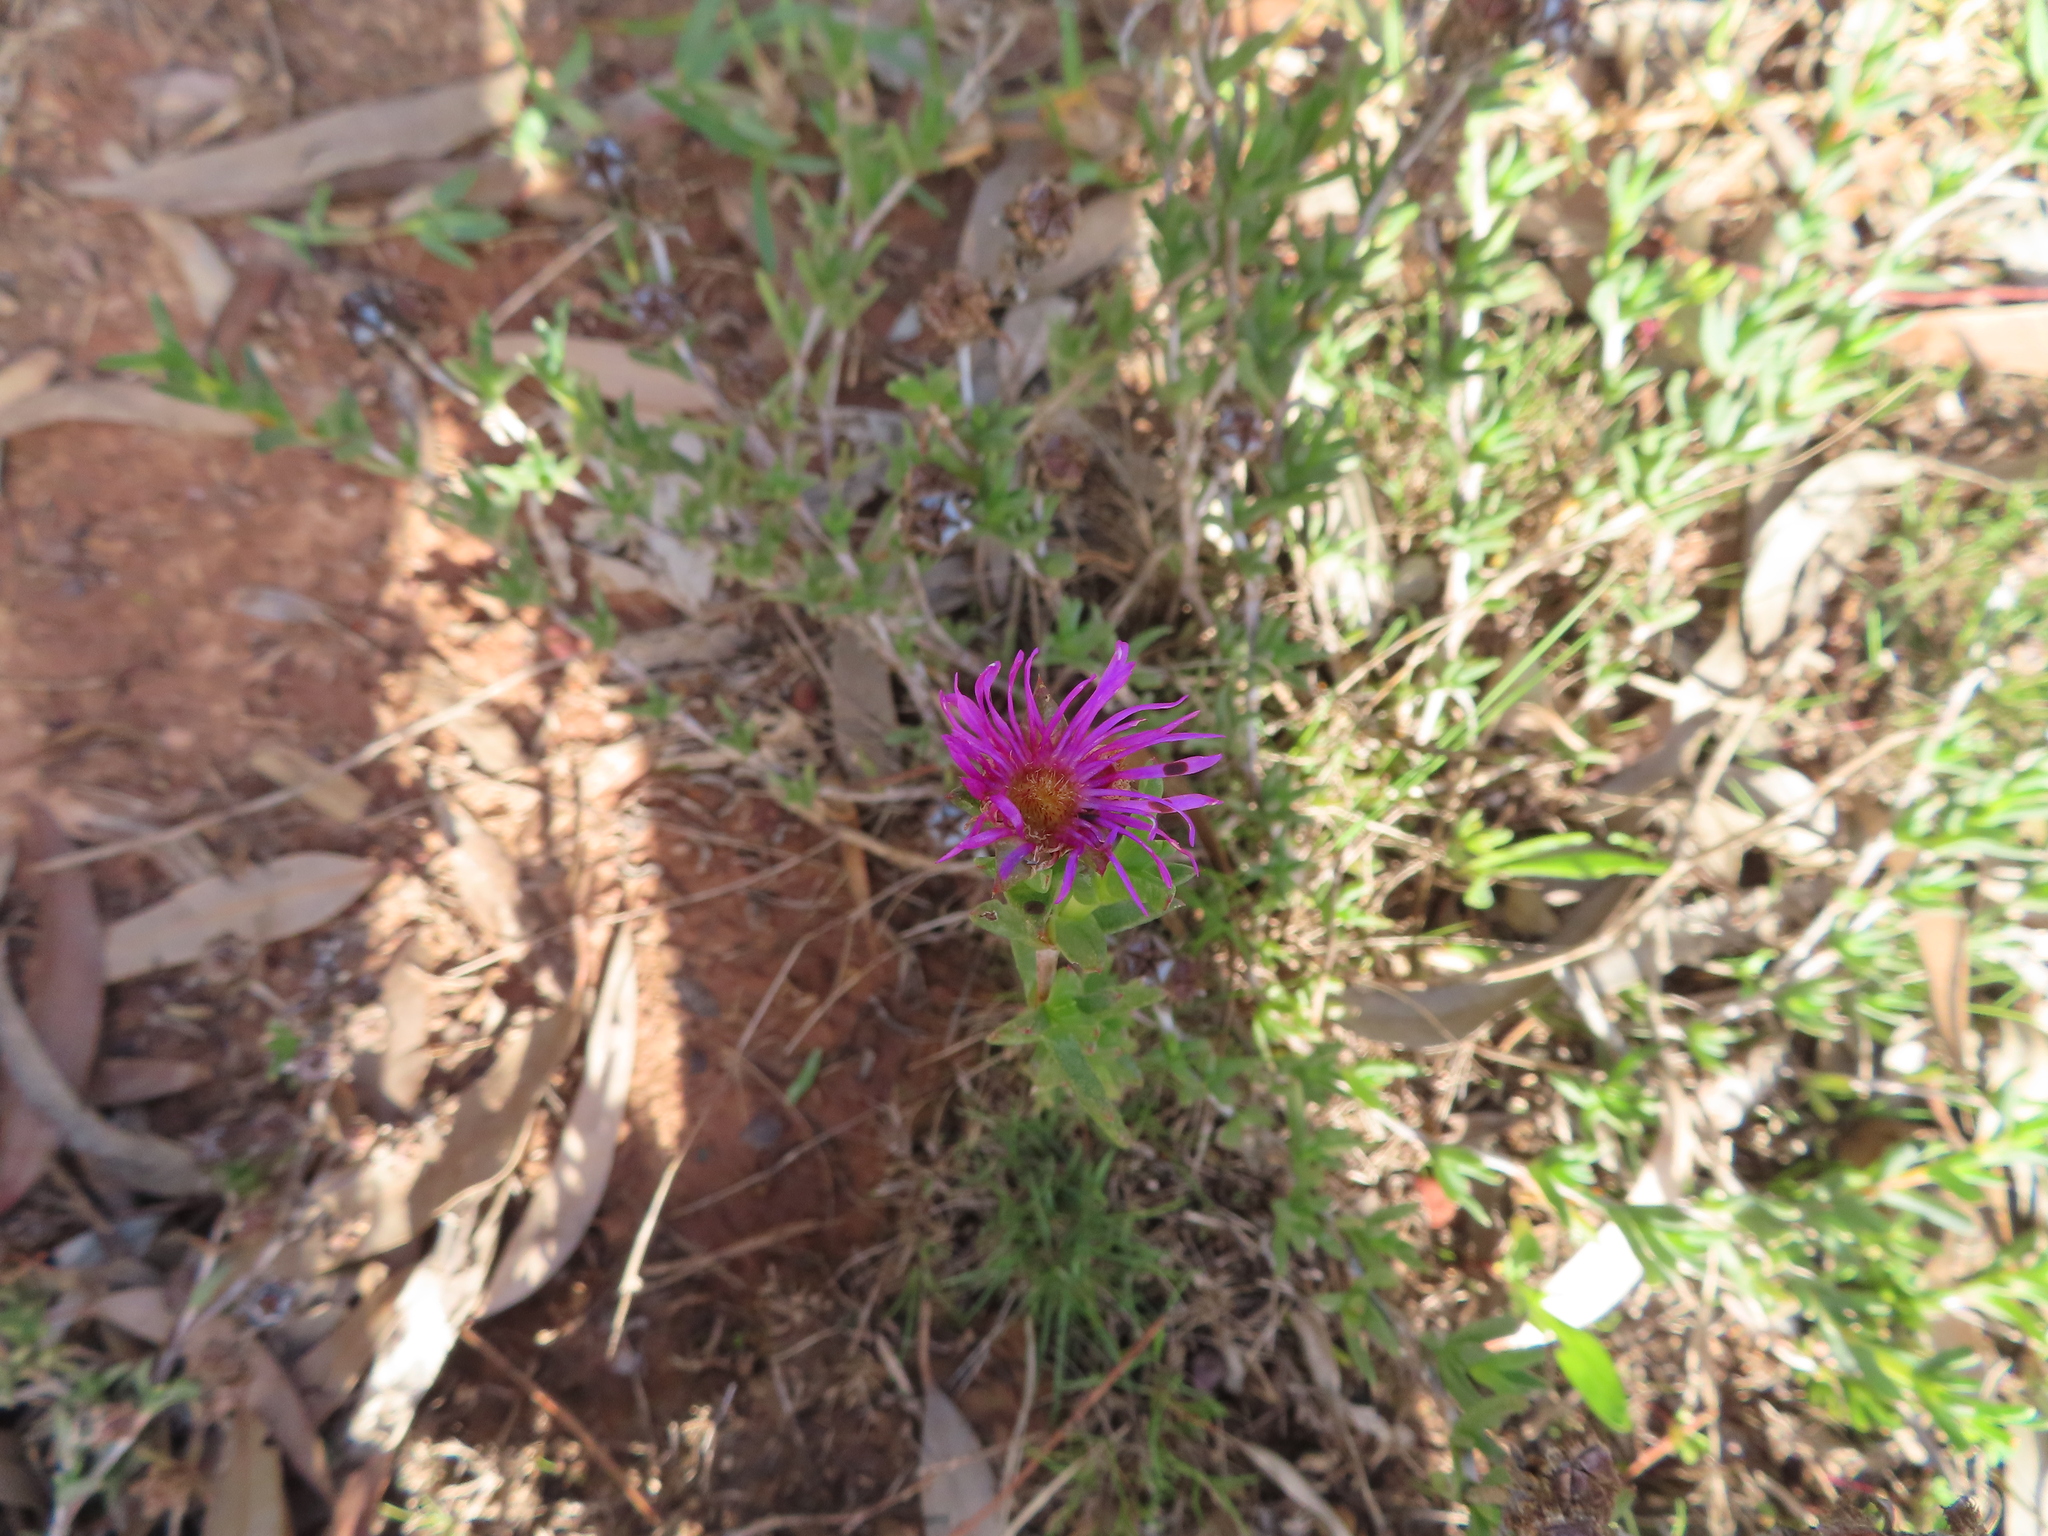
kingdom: Plantae
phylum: Tracheophyta
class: Magnoliopsida
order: Caryophyllales
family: Aizoaceae
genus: Erepsia
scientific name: Erepsia bracteata
